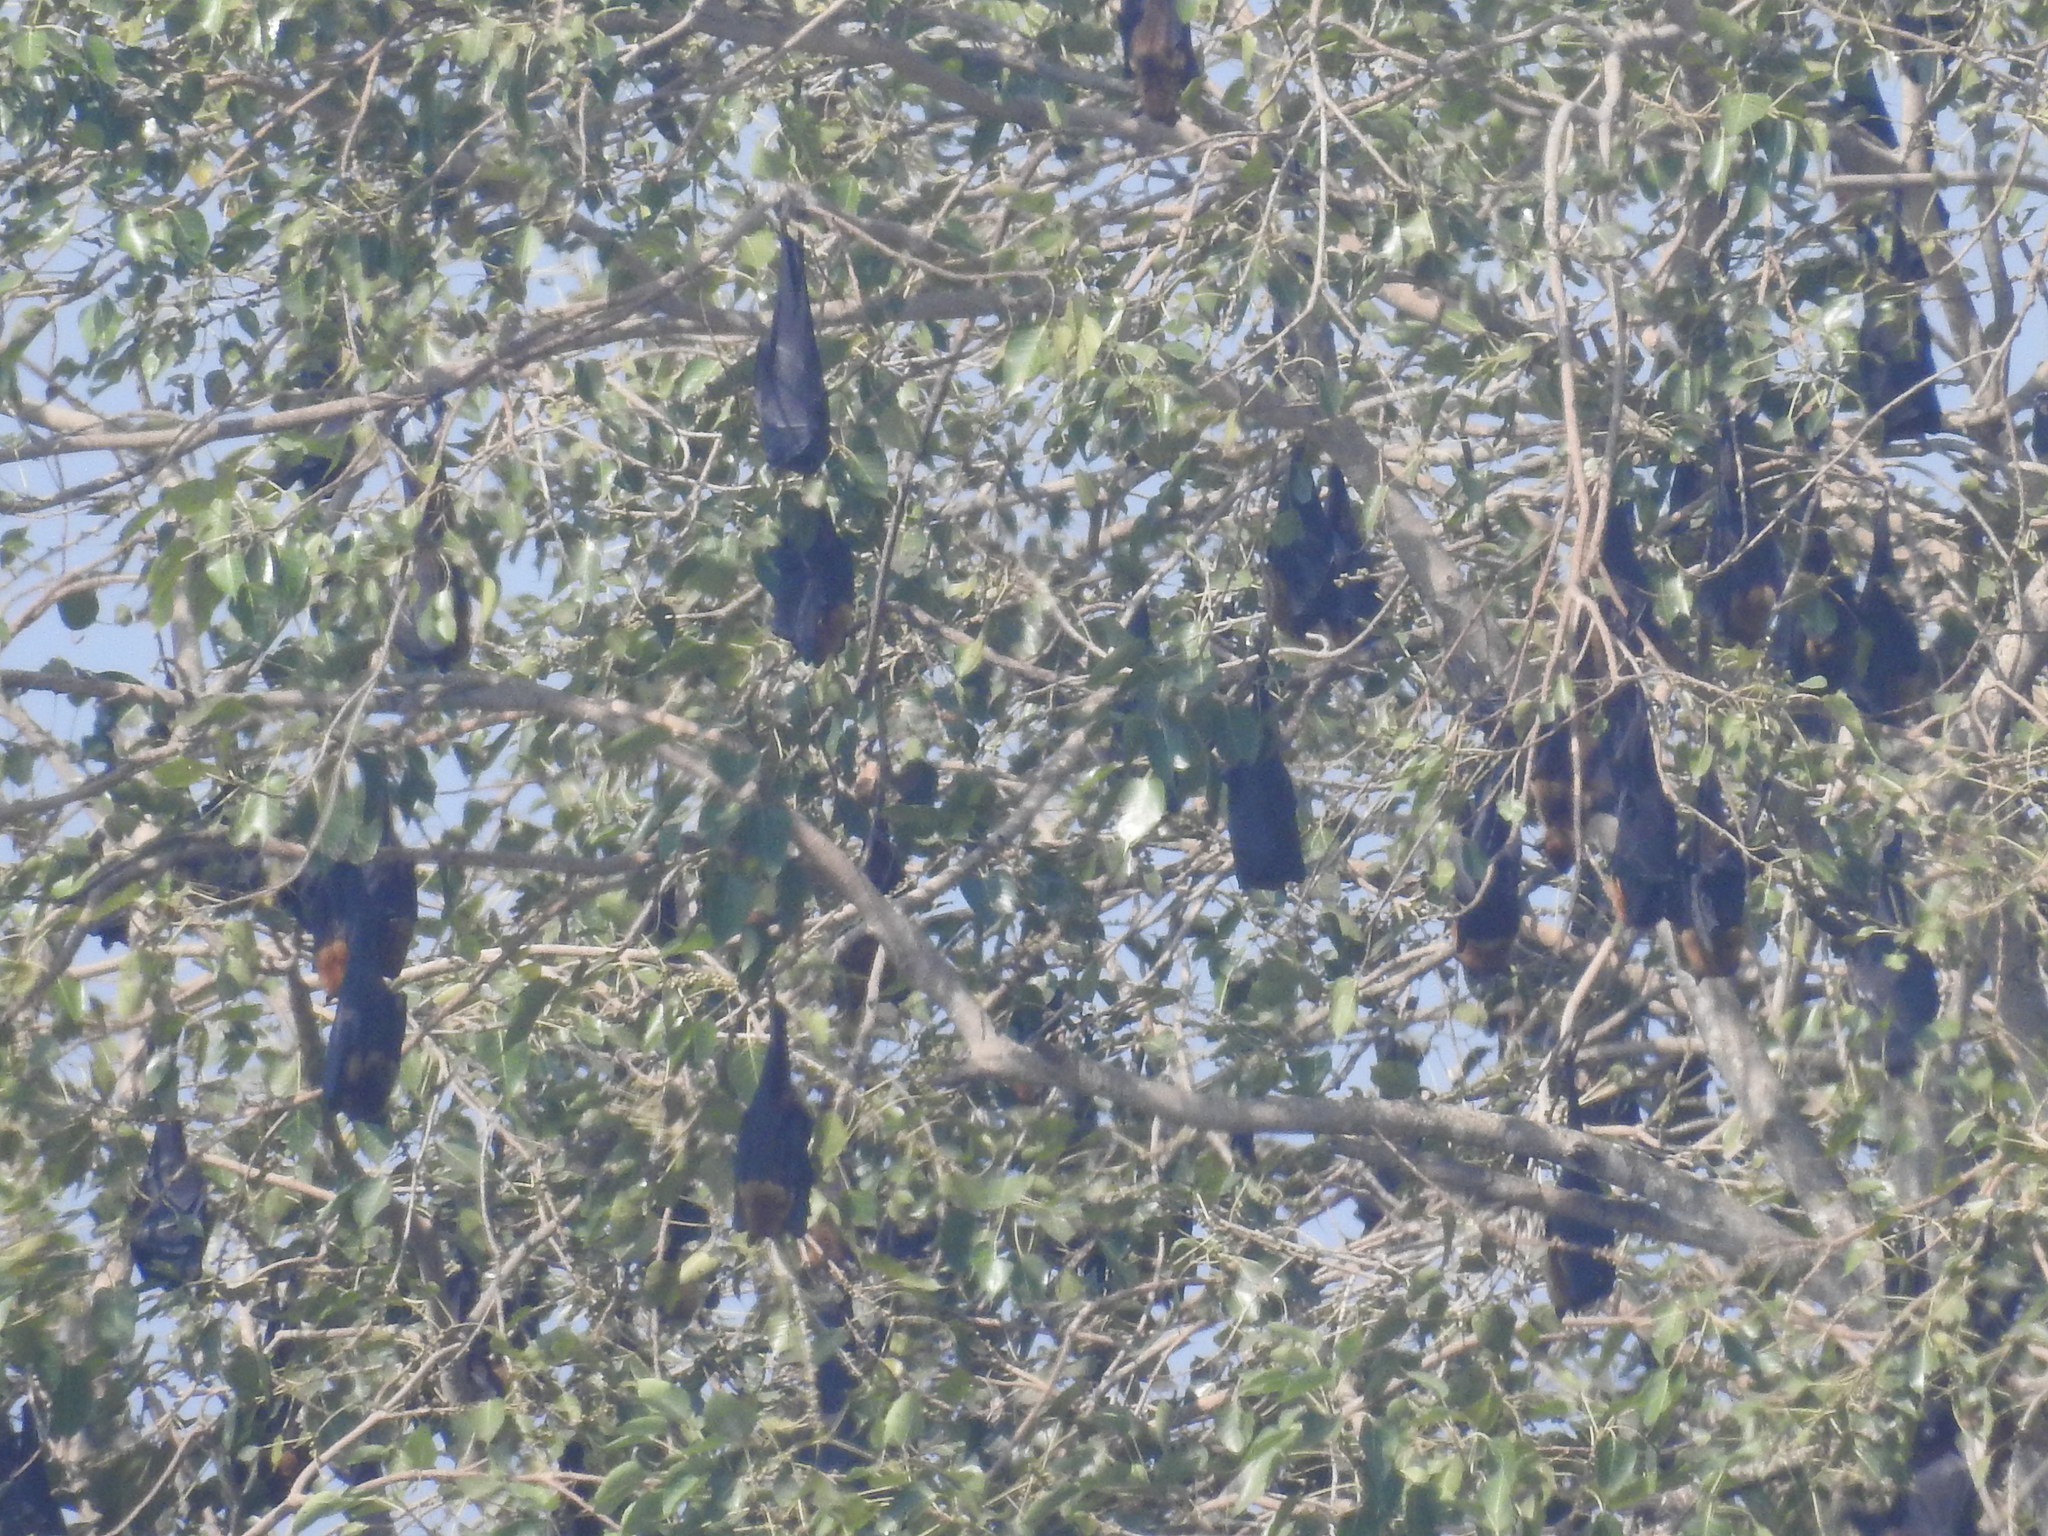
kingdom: Animalia
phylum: Chordata
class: Mammalia
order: Chiroptera
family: Pteropodidae
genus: Pteropus
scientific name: Pteropus vampyrus
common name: Large flying fox
